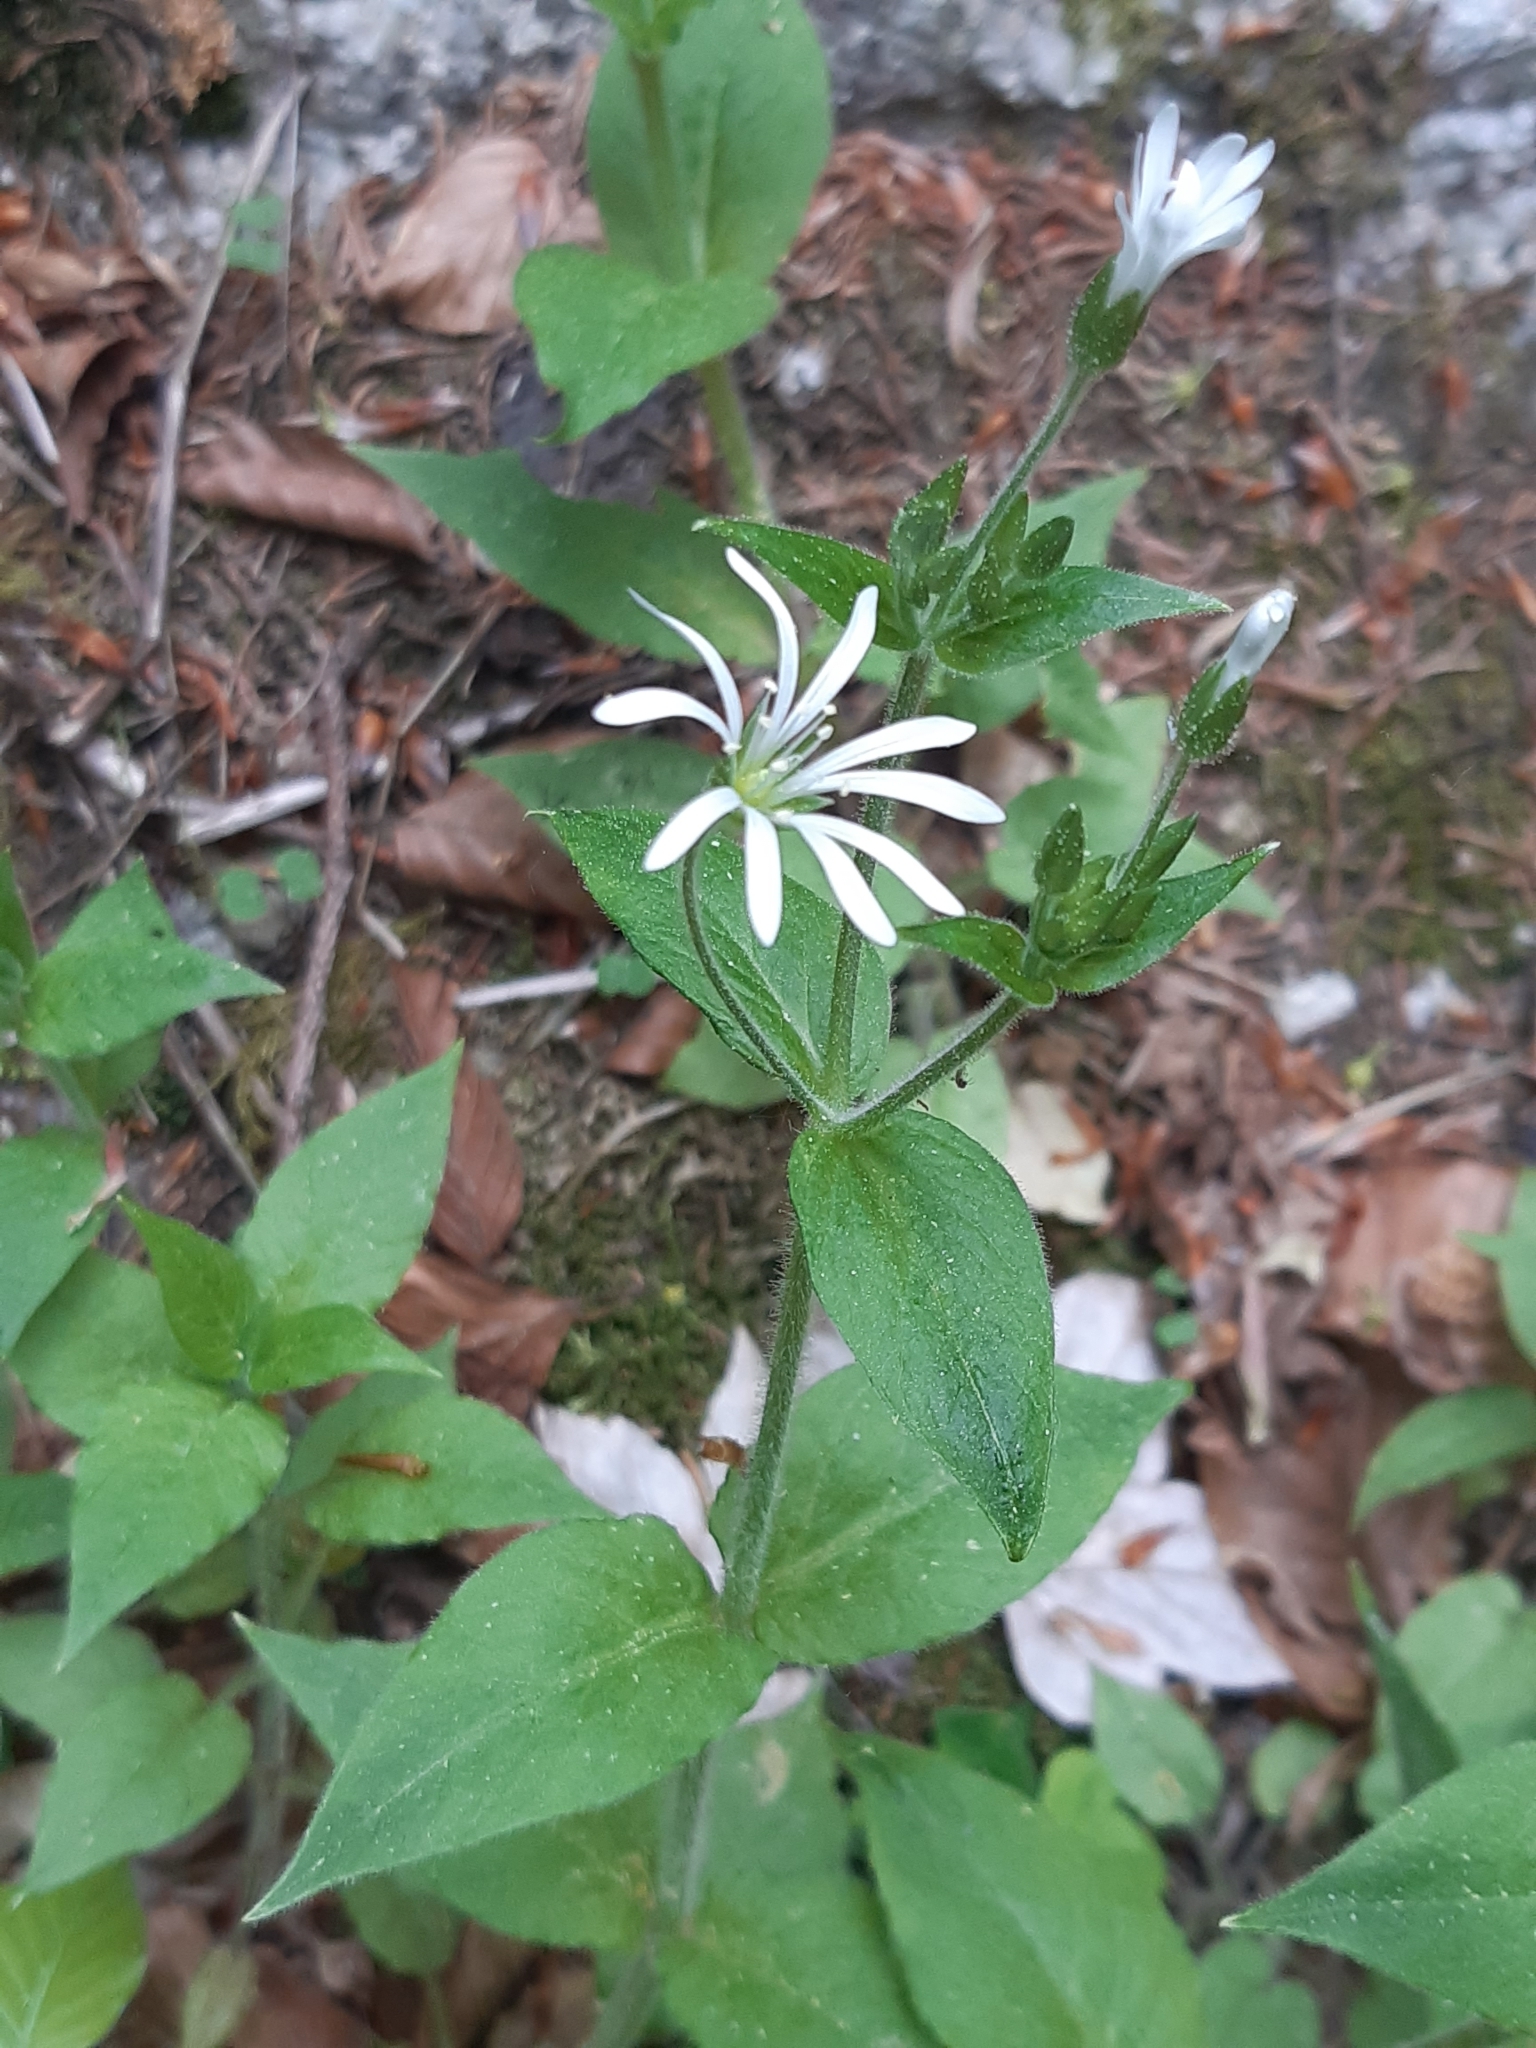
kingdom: Plantae
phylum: Tracheophyta
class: Magnoliopsida
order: Caryophyllales
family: Caryophyllaceae
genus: Stellaria
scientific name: Stellaria nemorum
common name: Wood stitchwort
